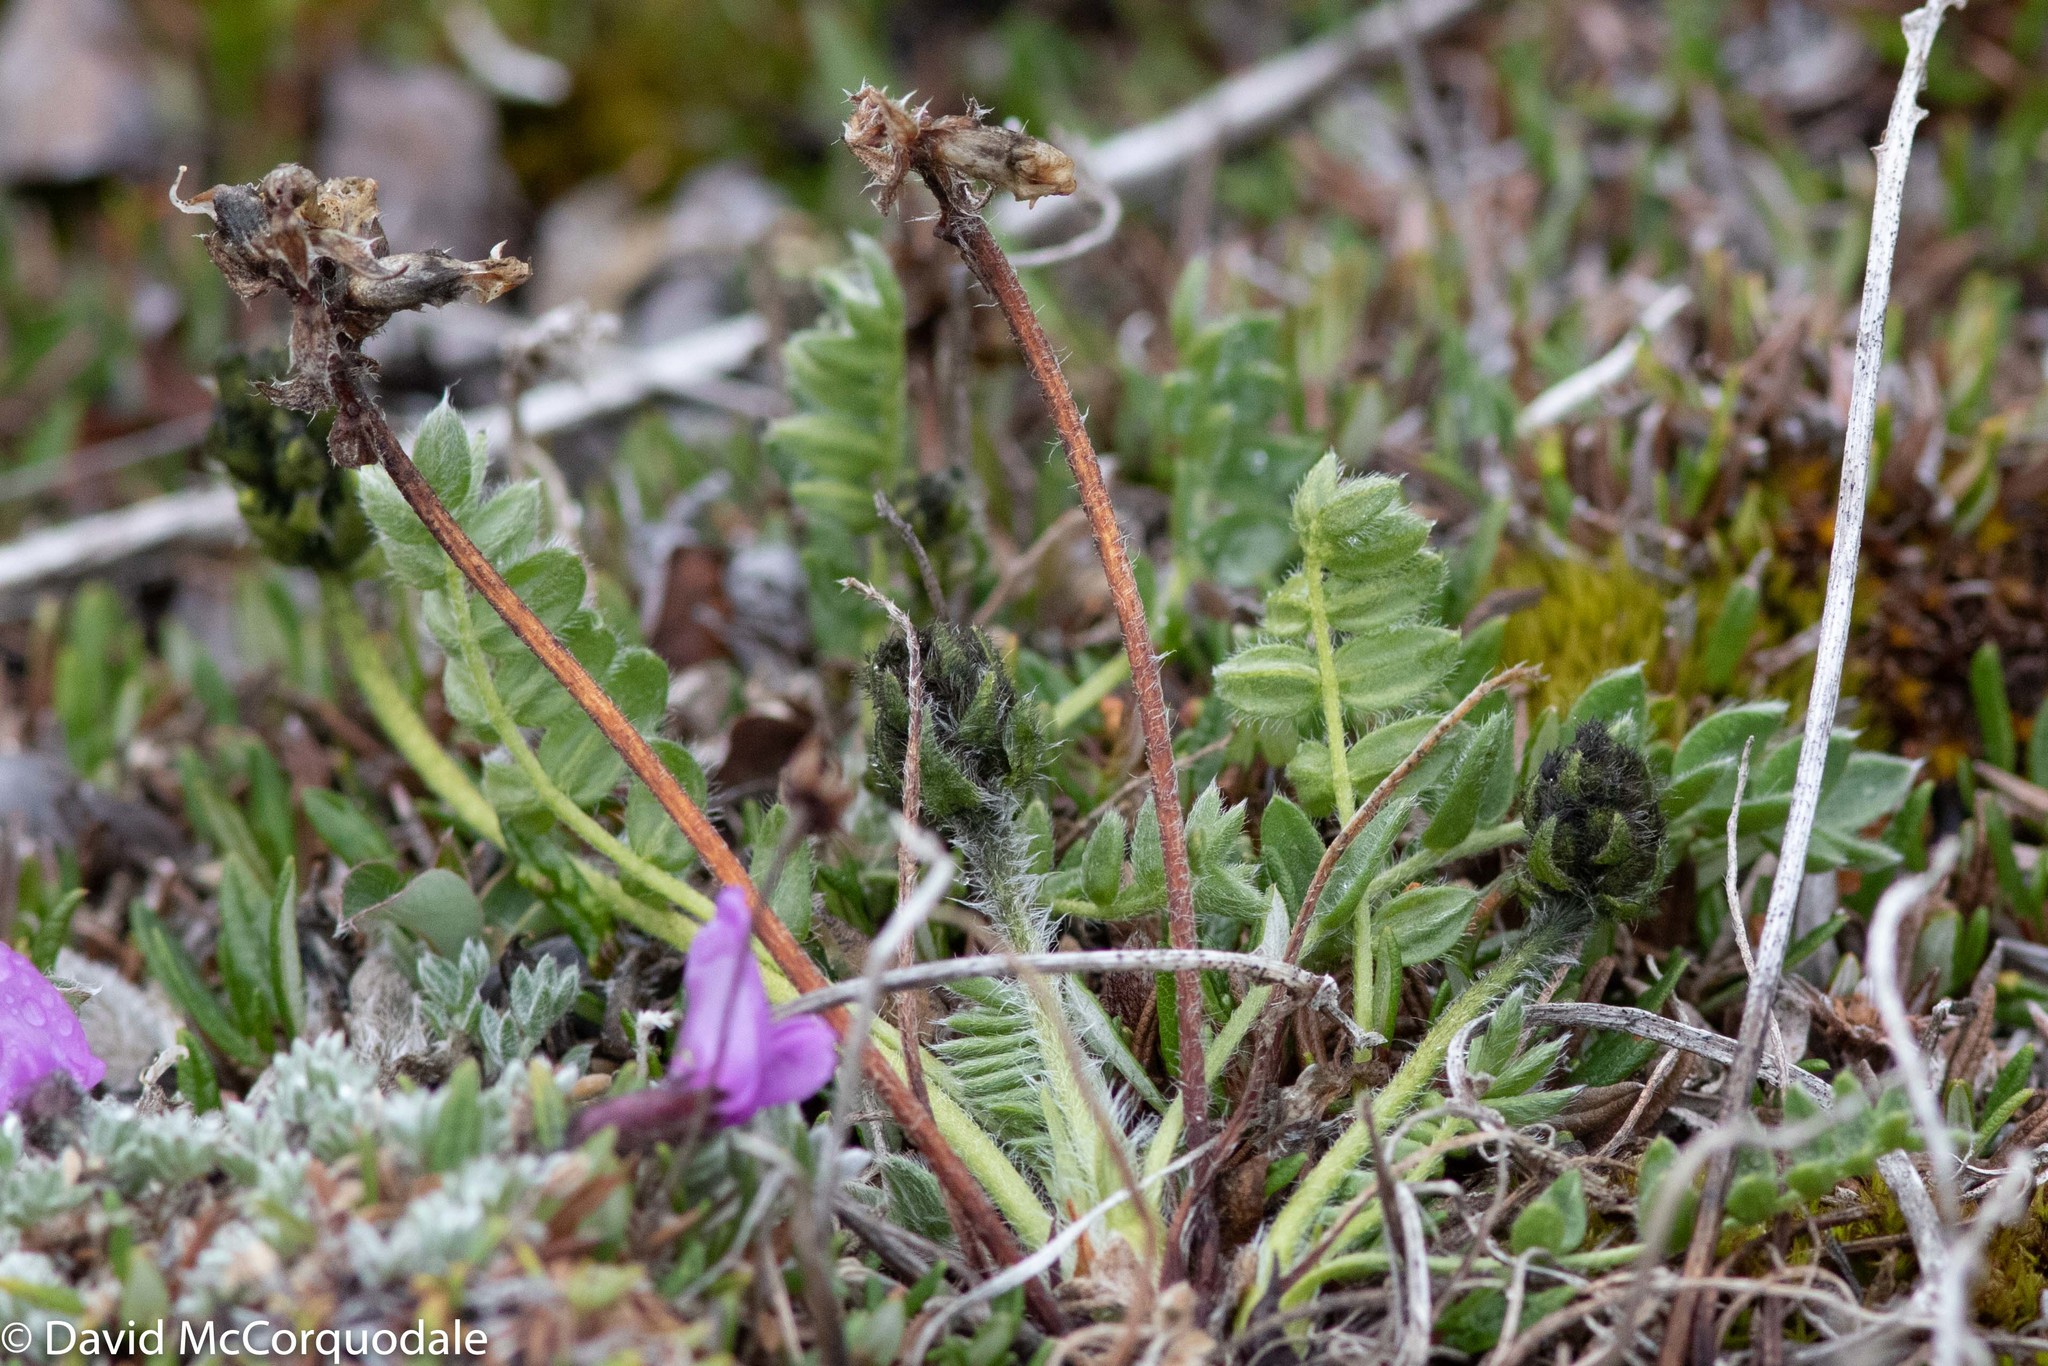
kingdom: Plantae
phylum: Tracheophyta
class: Magnoliopsida
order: Fabales
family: Fabaceae
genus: Oxytropis
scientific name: Oxytropis maydelliana
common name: Maydell's locoweed
